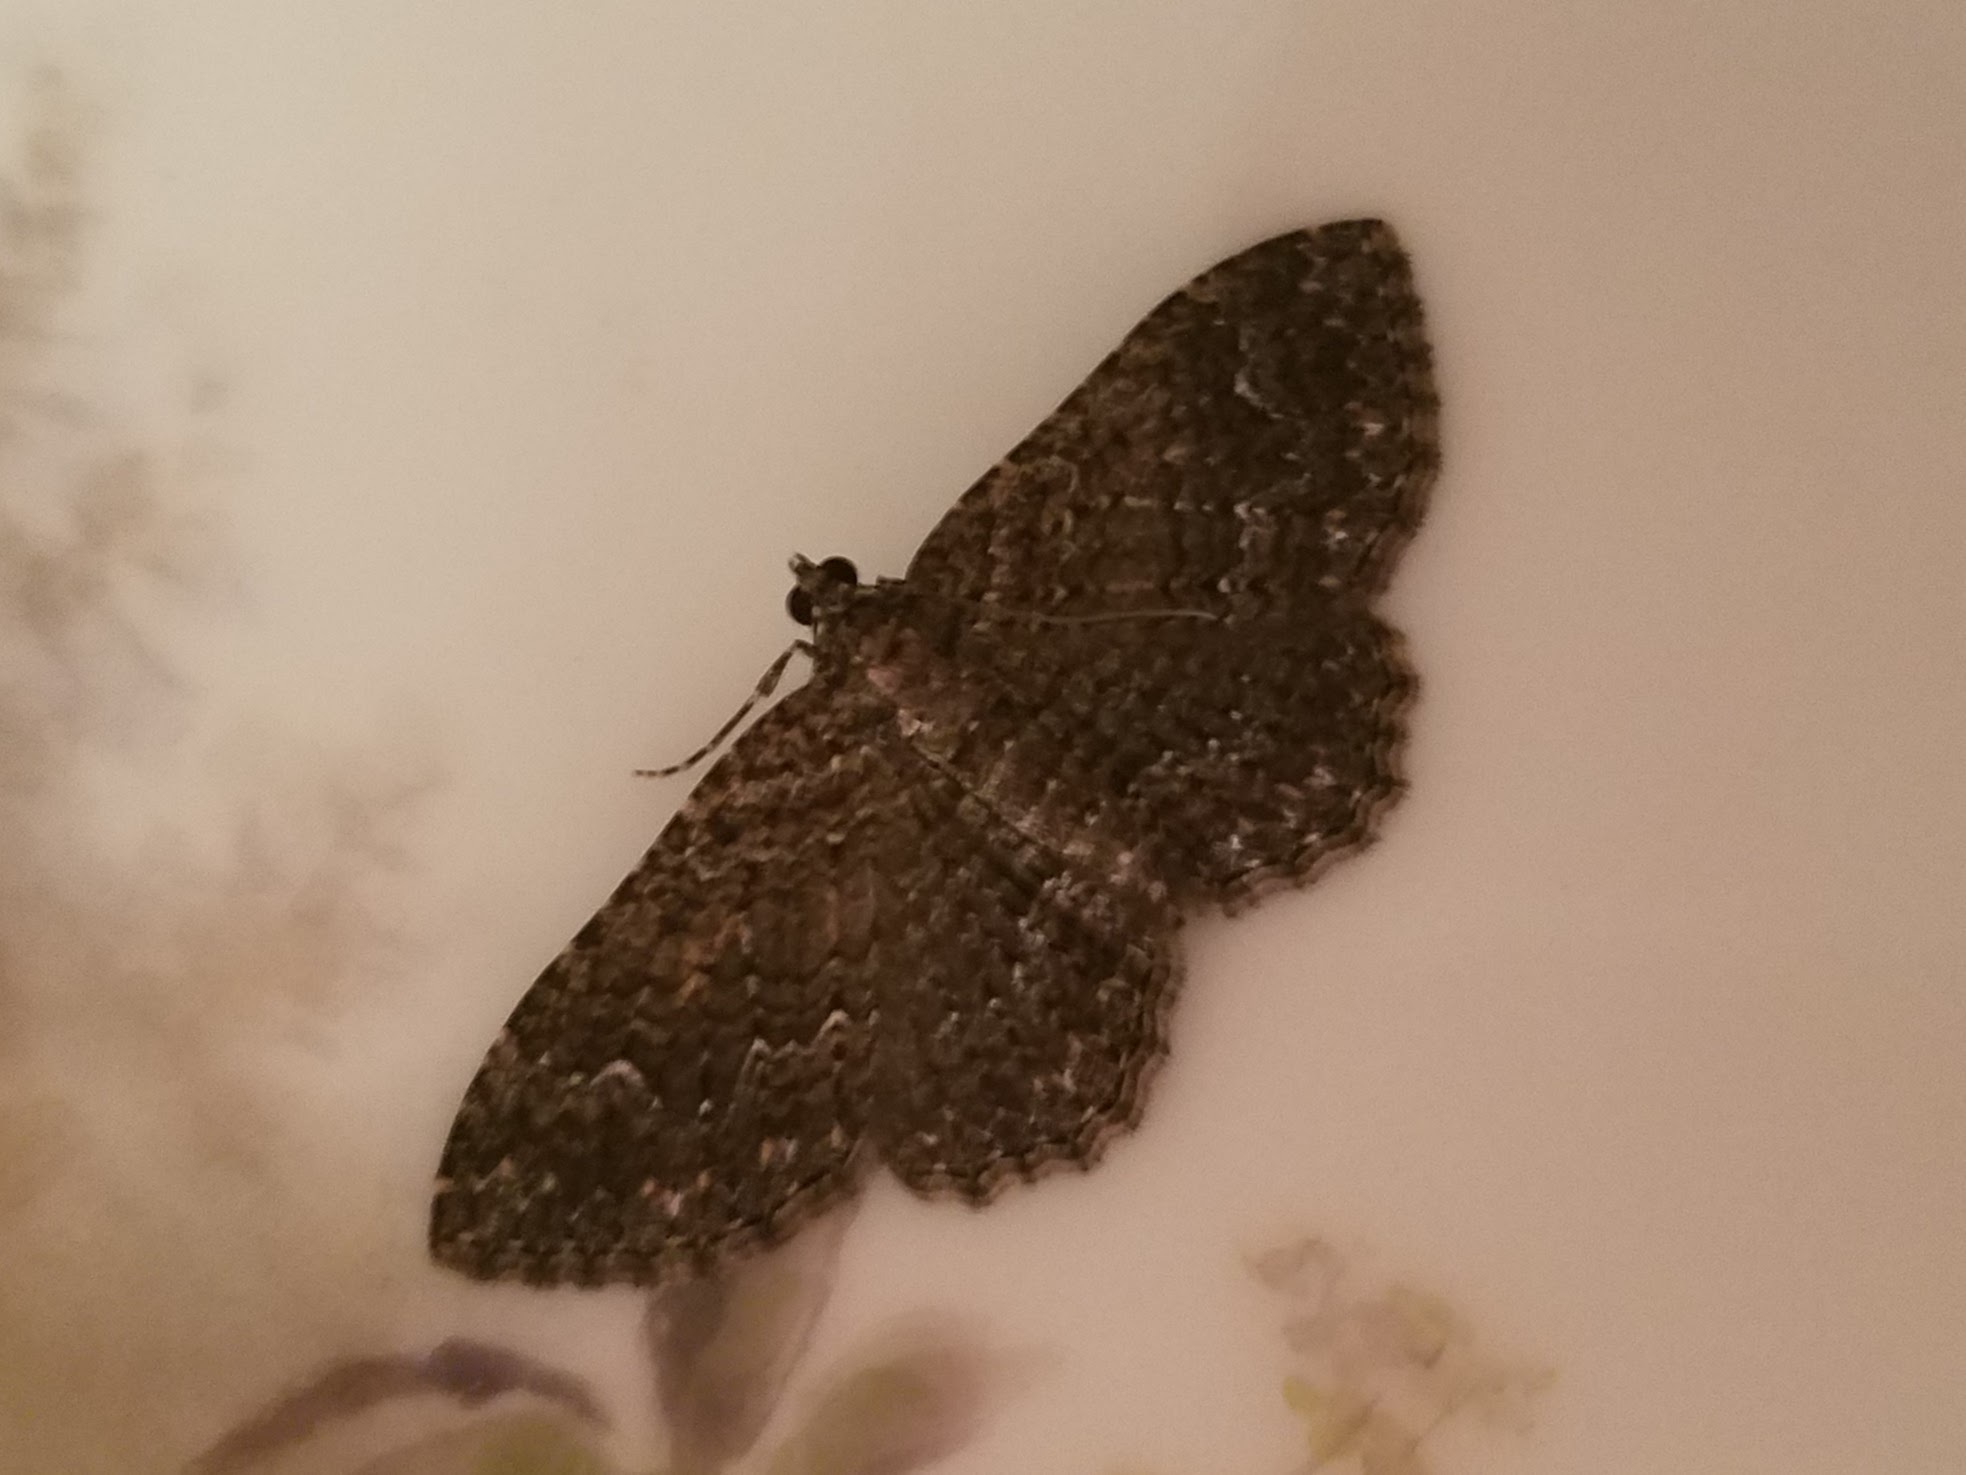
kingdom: Animalia
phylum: Arthropoda
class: Insecta
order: Lepidoptera
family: Geometridae
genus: Disclisioprocta
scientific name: Disclisioprocta stellata
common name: Somber carpet
